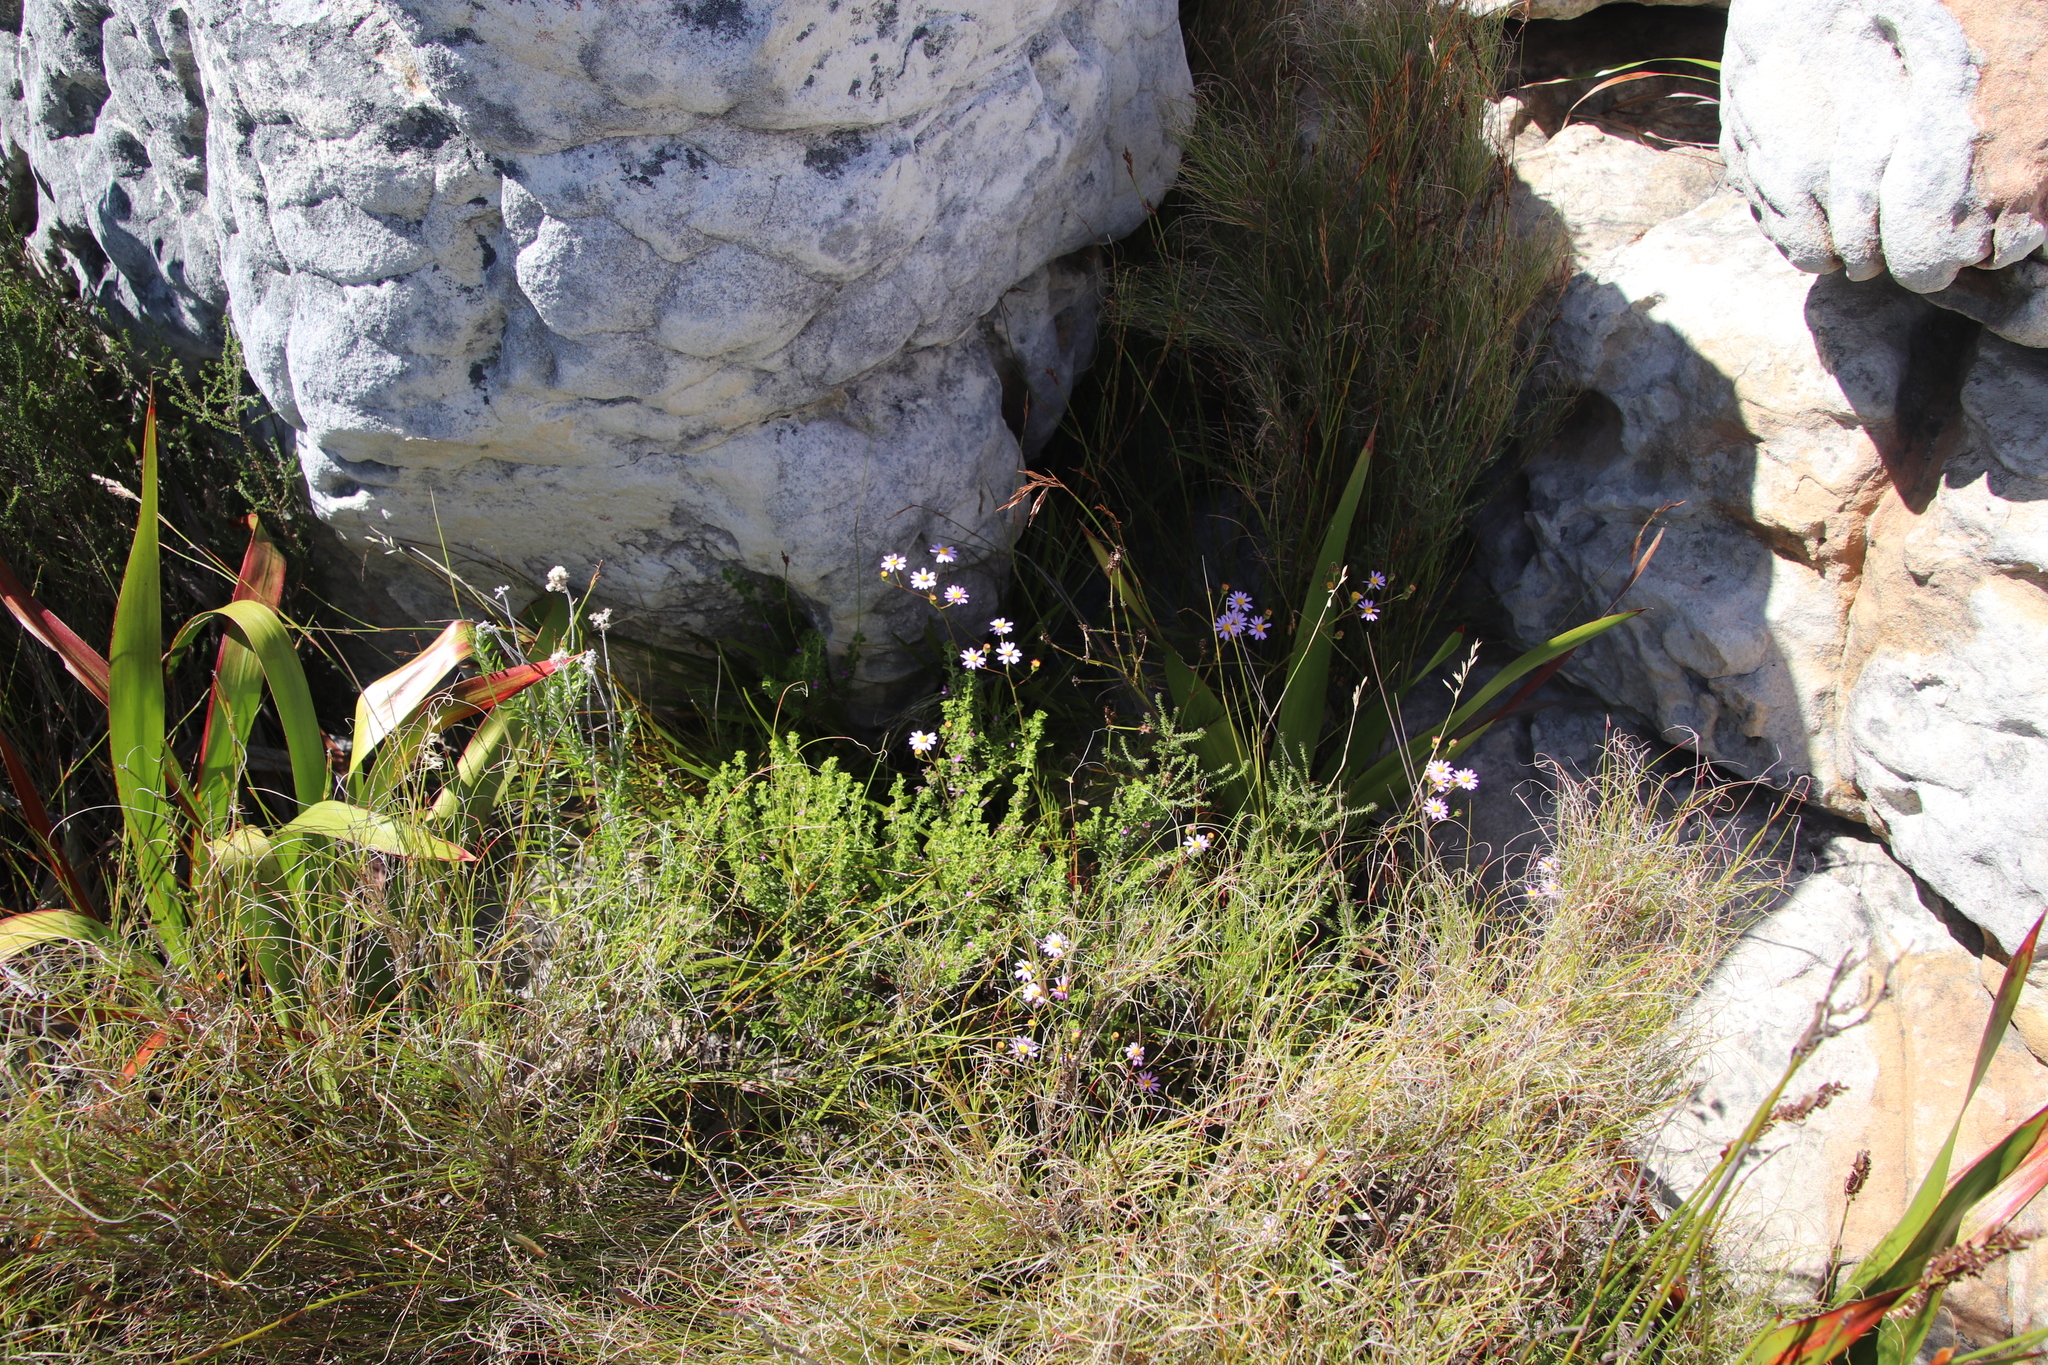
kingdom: Plantae
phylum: Tracheophyta
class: Magnoliopsida
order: Asterales
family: Asteraceae
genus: Senecio
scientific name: Senecio umbellatus
